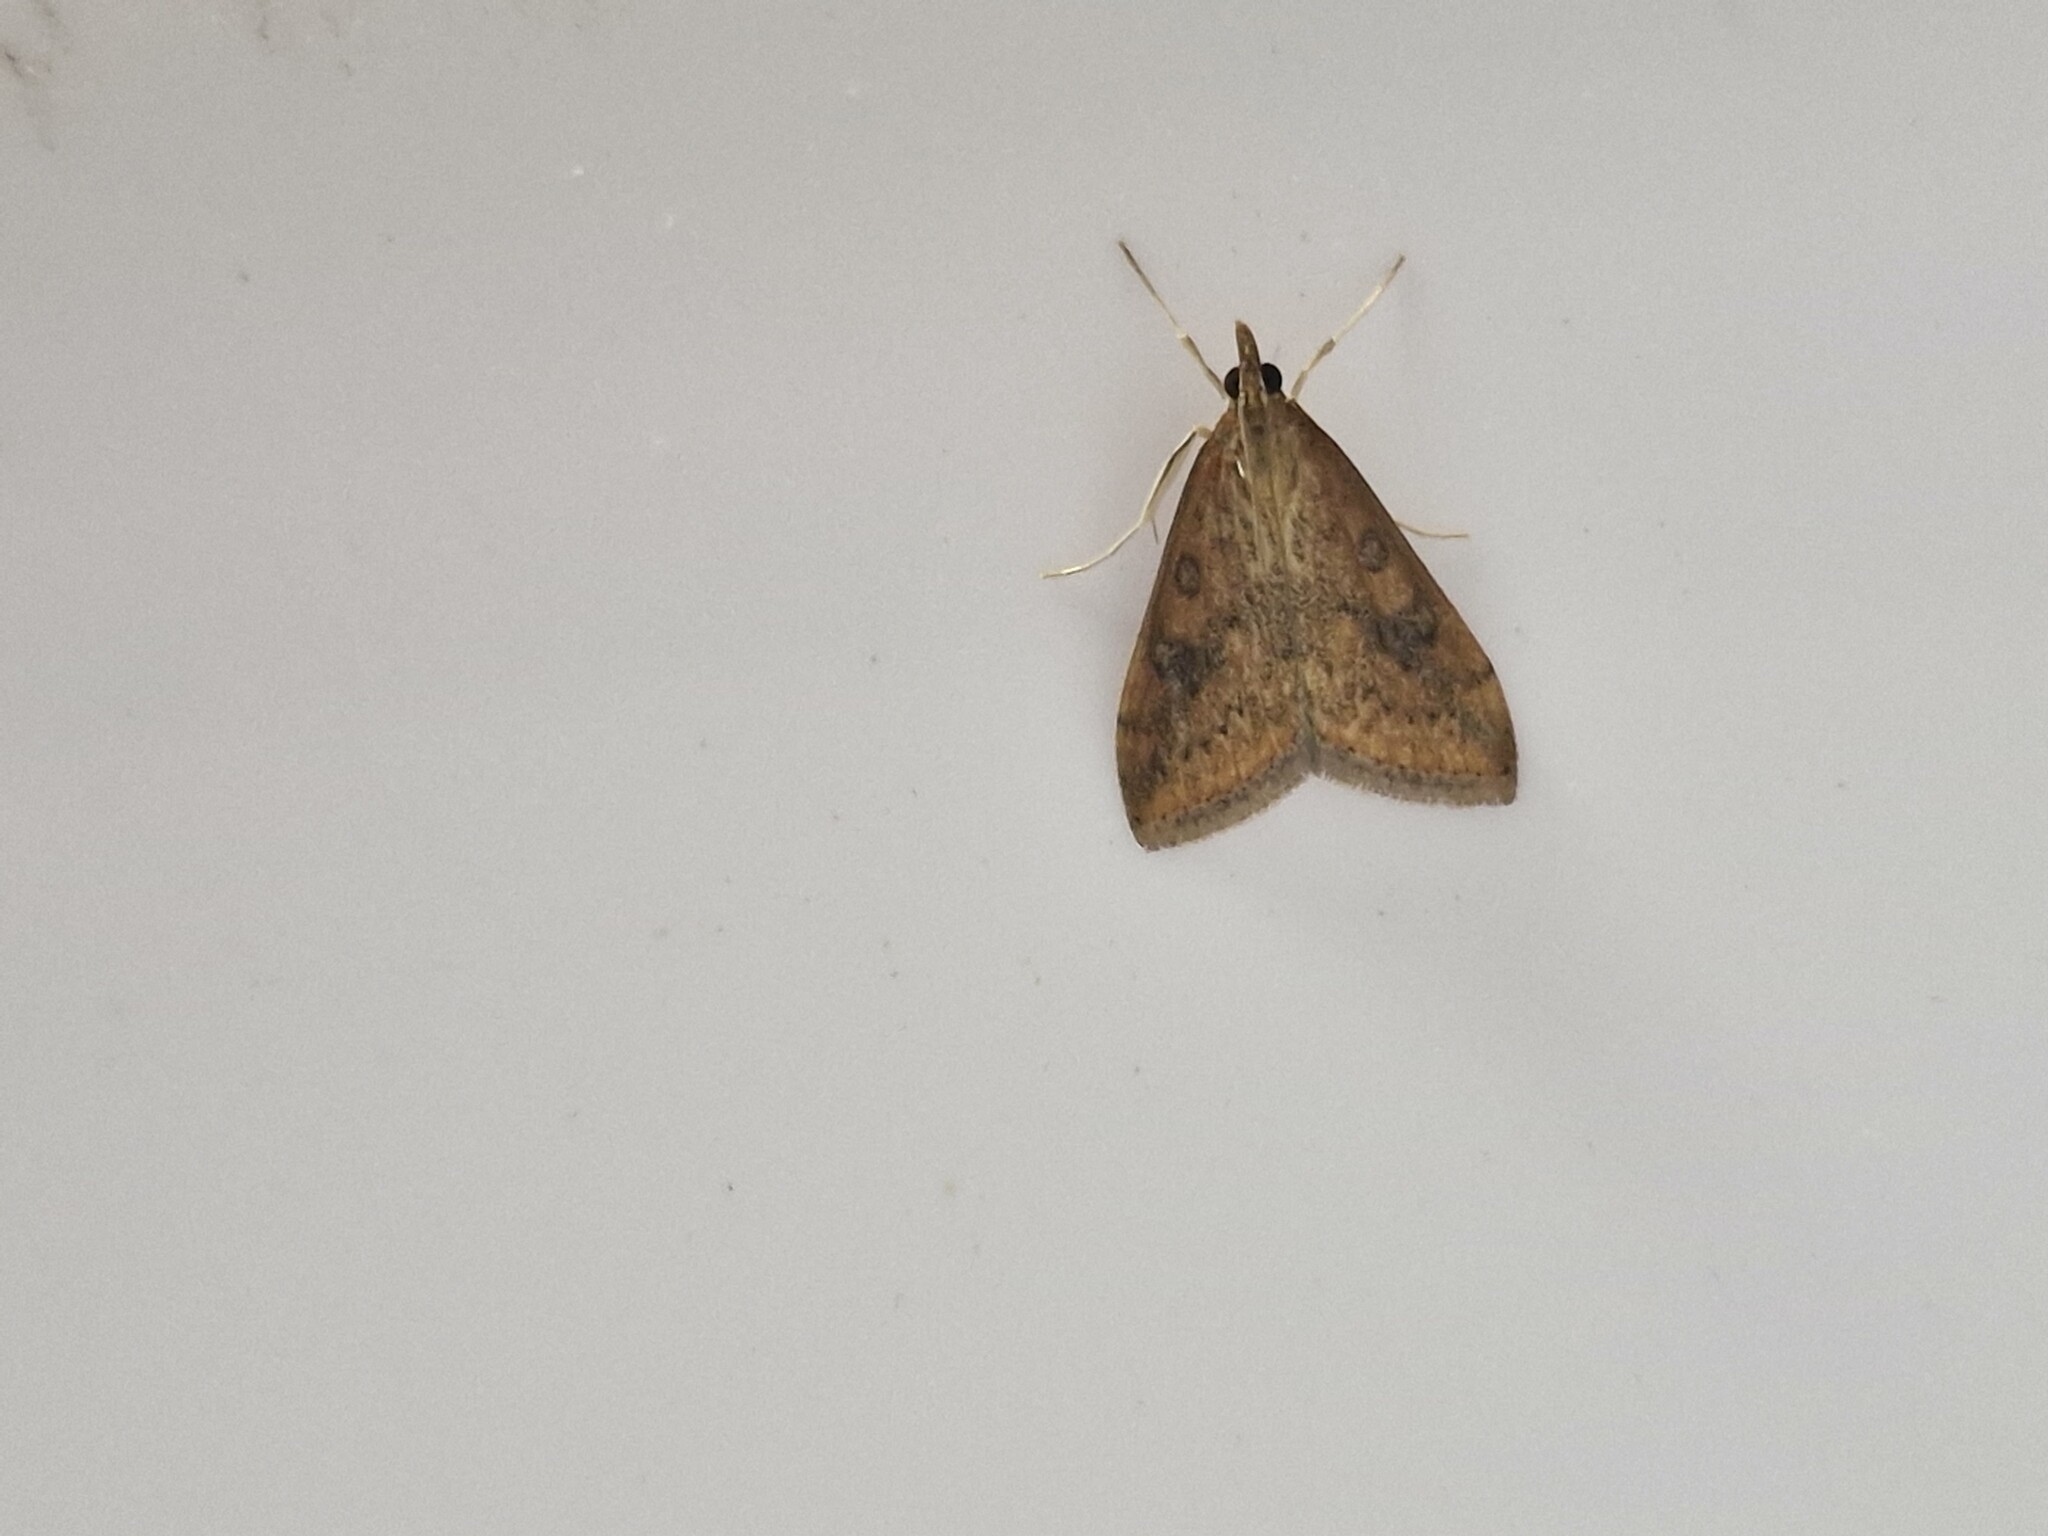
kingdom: Animalia
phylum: Arthropoda
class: Insecta
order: Lepidoptera
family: Crambidae
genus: Udea
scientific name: Udea ferrugalis
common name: Rusty dot
